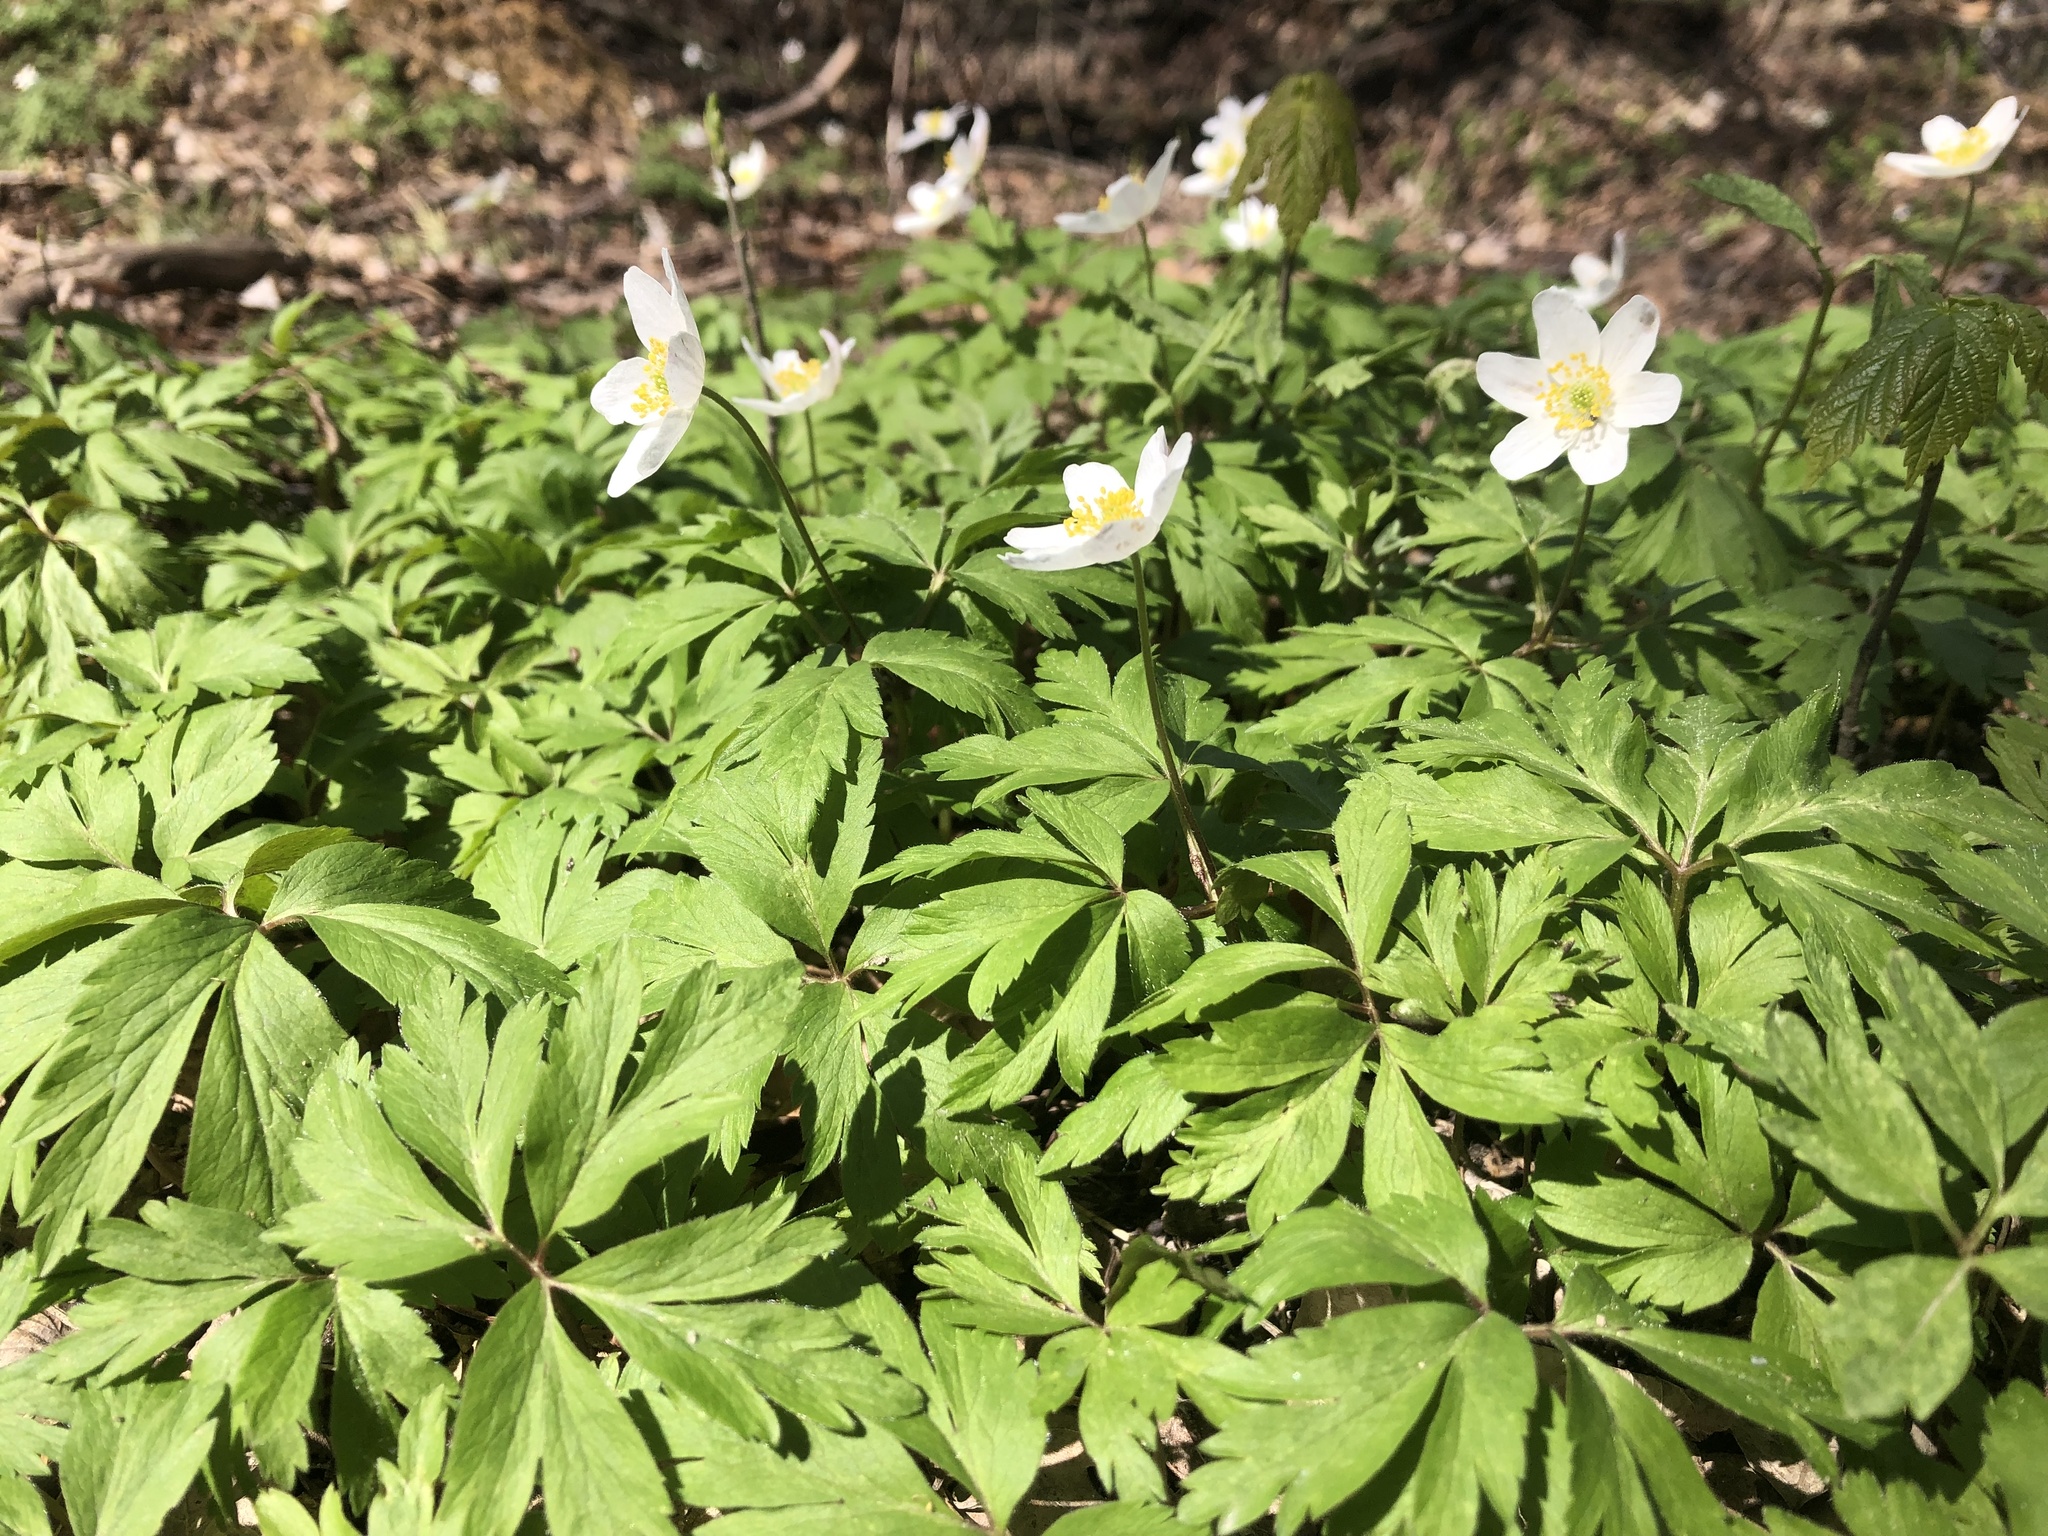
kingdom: Plantae
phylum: Tracheophyta
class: Magnoliopsida
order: Ranunculales
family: Ranunculaceae
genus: Anemone
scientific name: Anemone nemorosa
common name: Wood anemone
